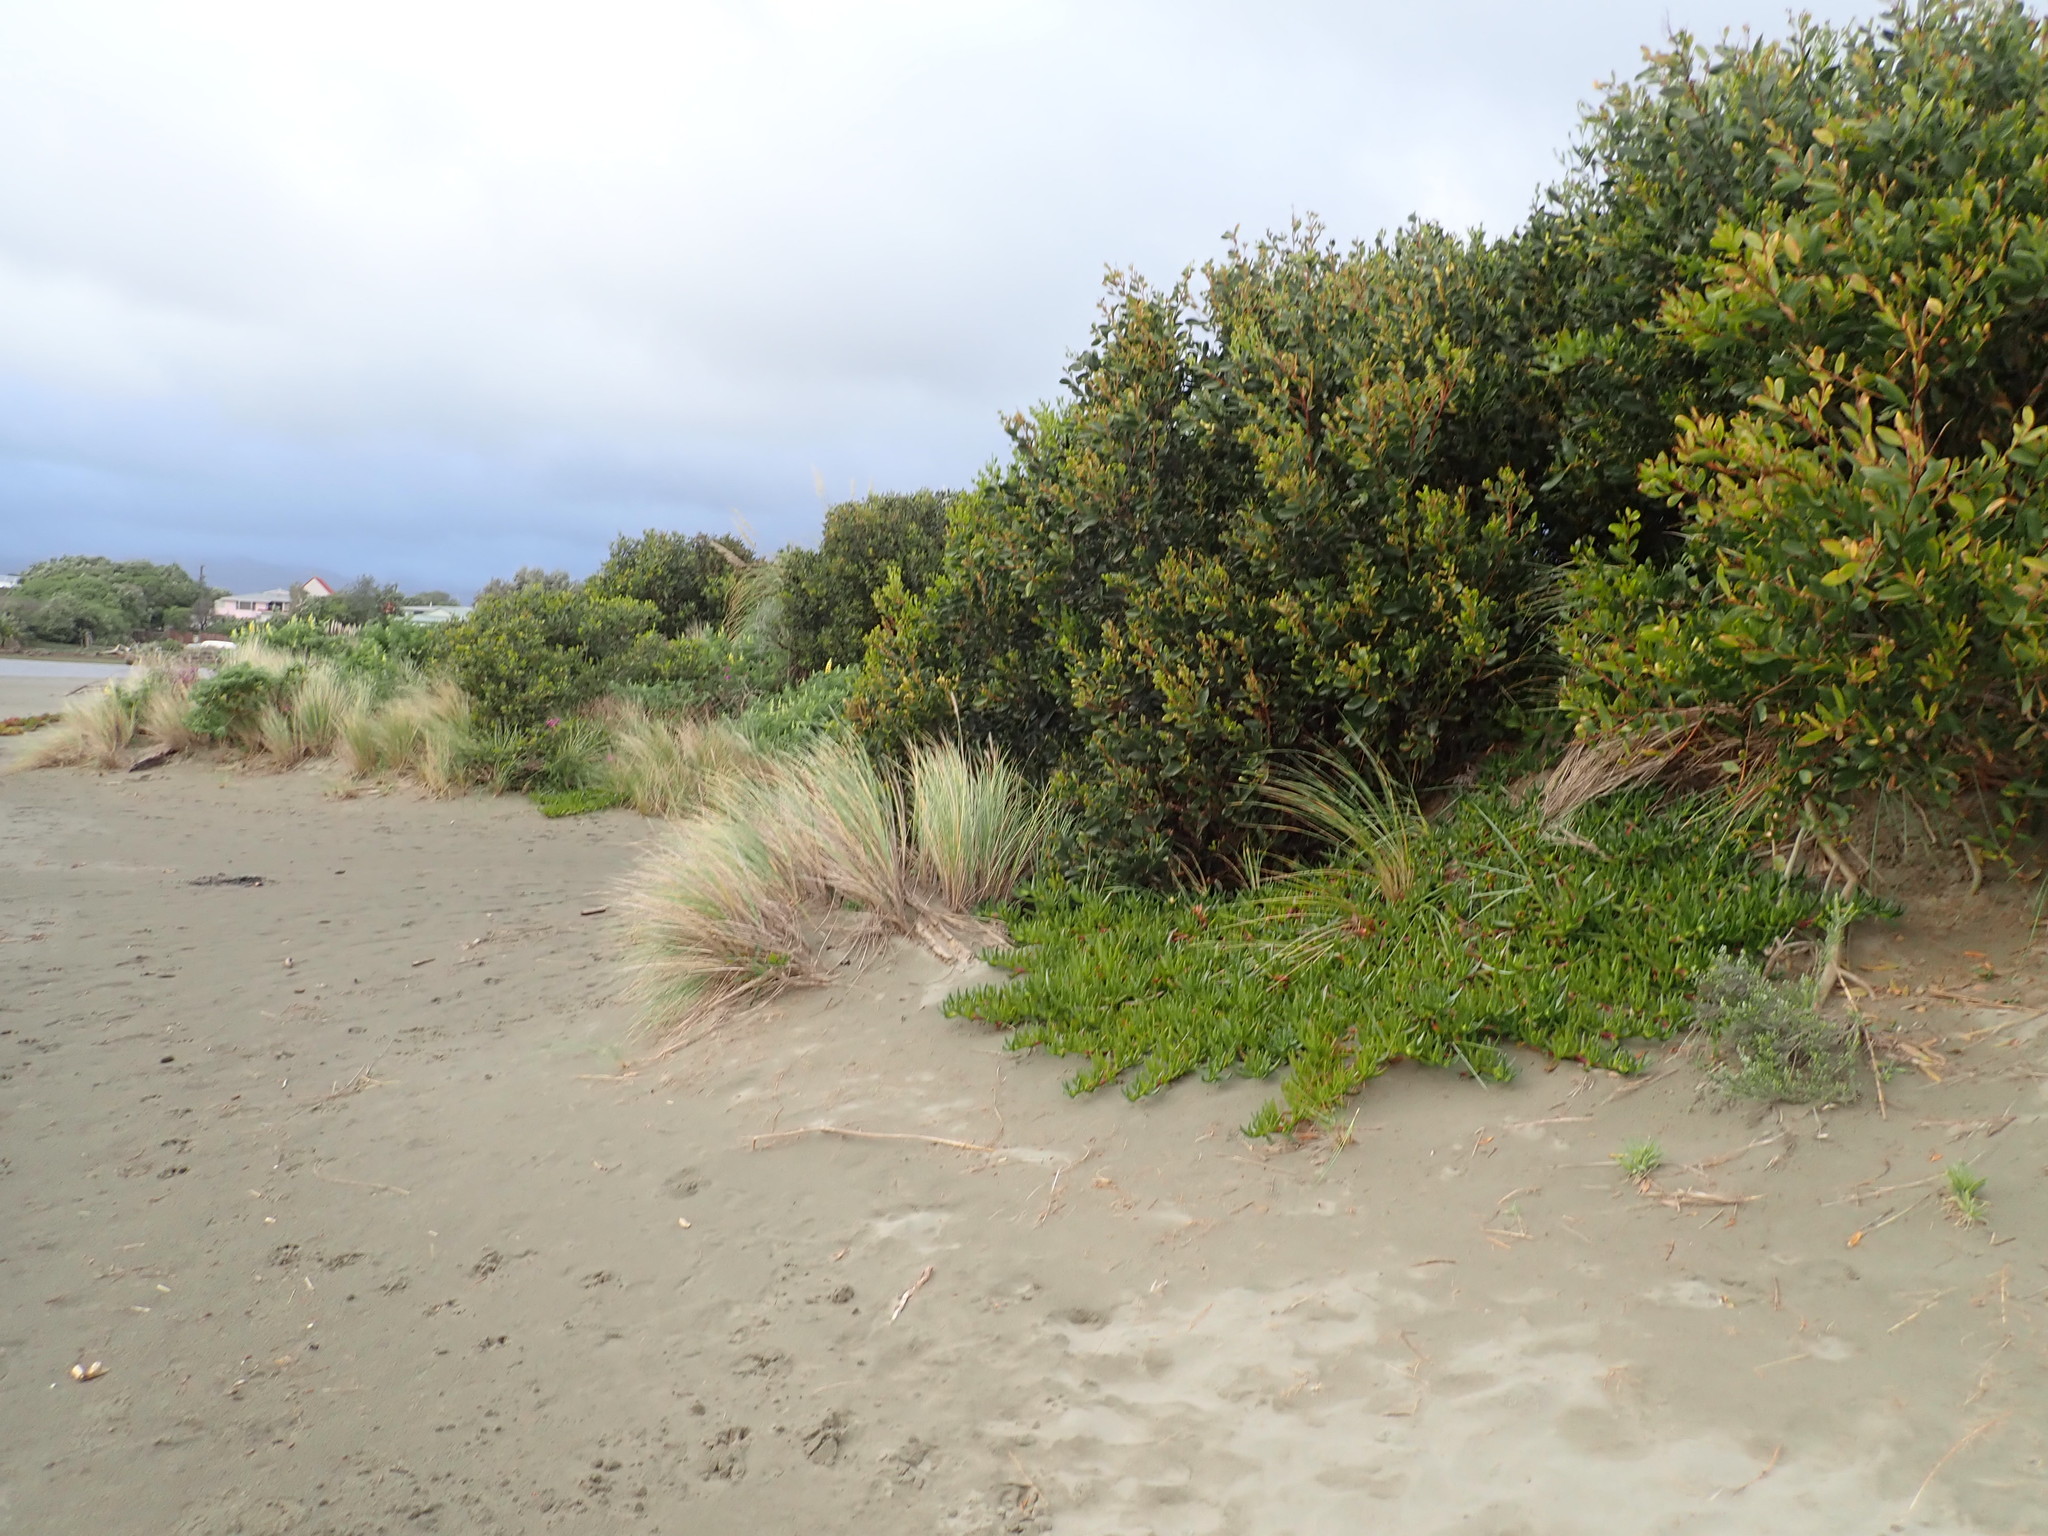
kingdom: Plantae
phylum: Tracheophyta
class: Magnoliopsida
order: Fabales
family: Fabaceae
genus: Acacia
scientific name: Acacia longifolia
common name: Sydney golden wattle
